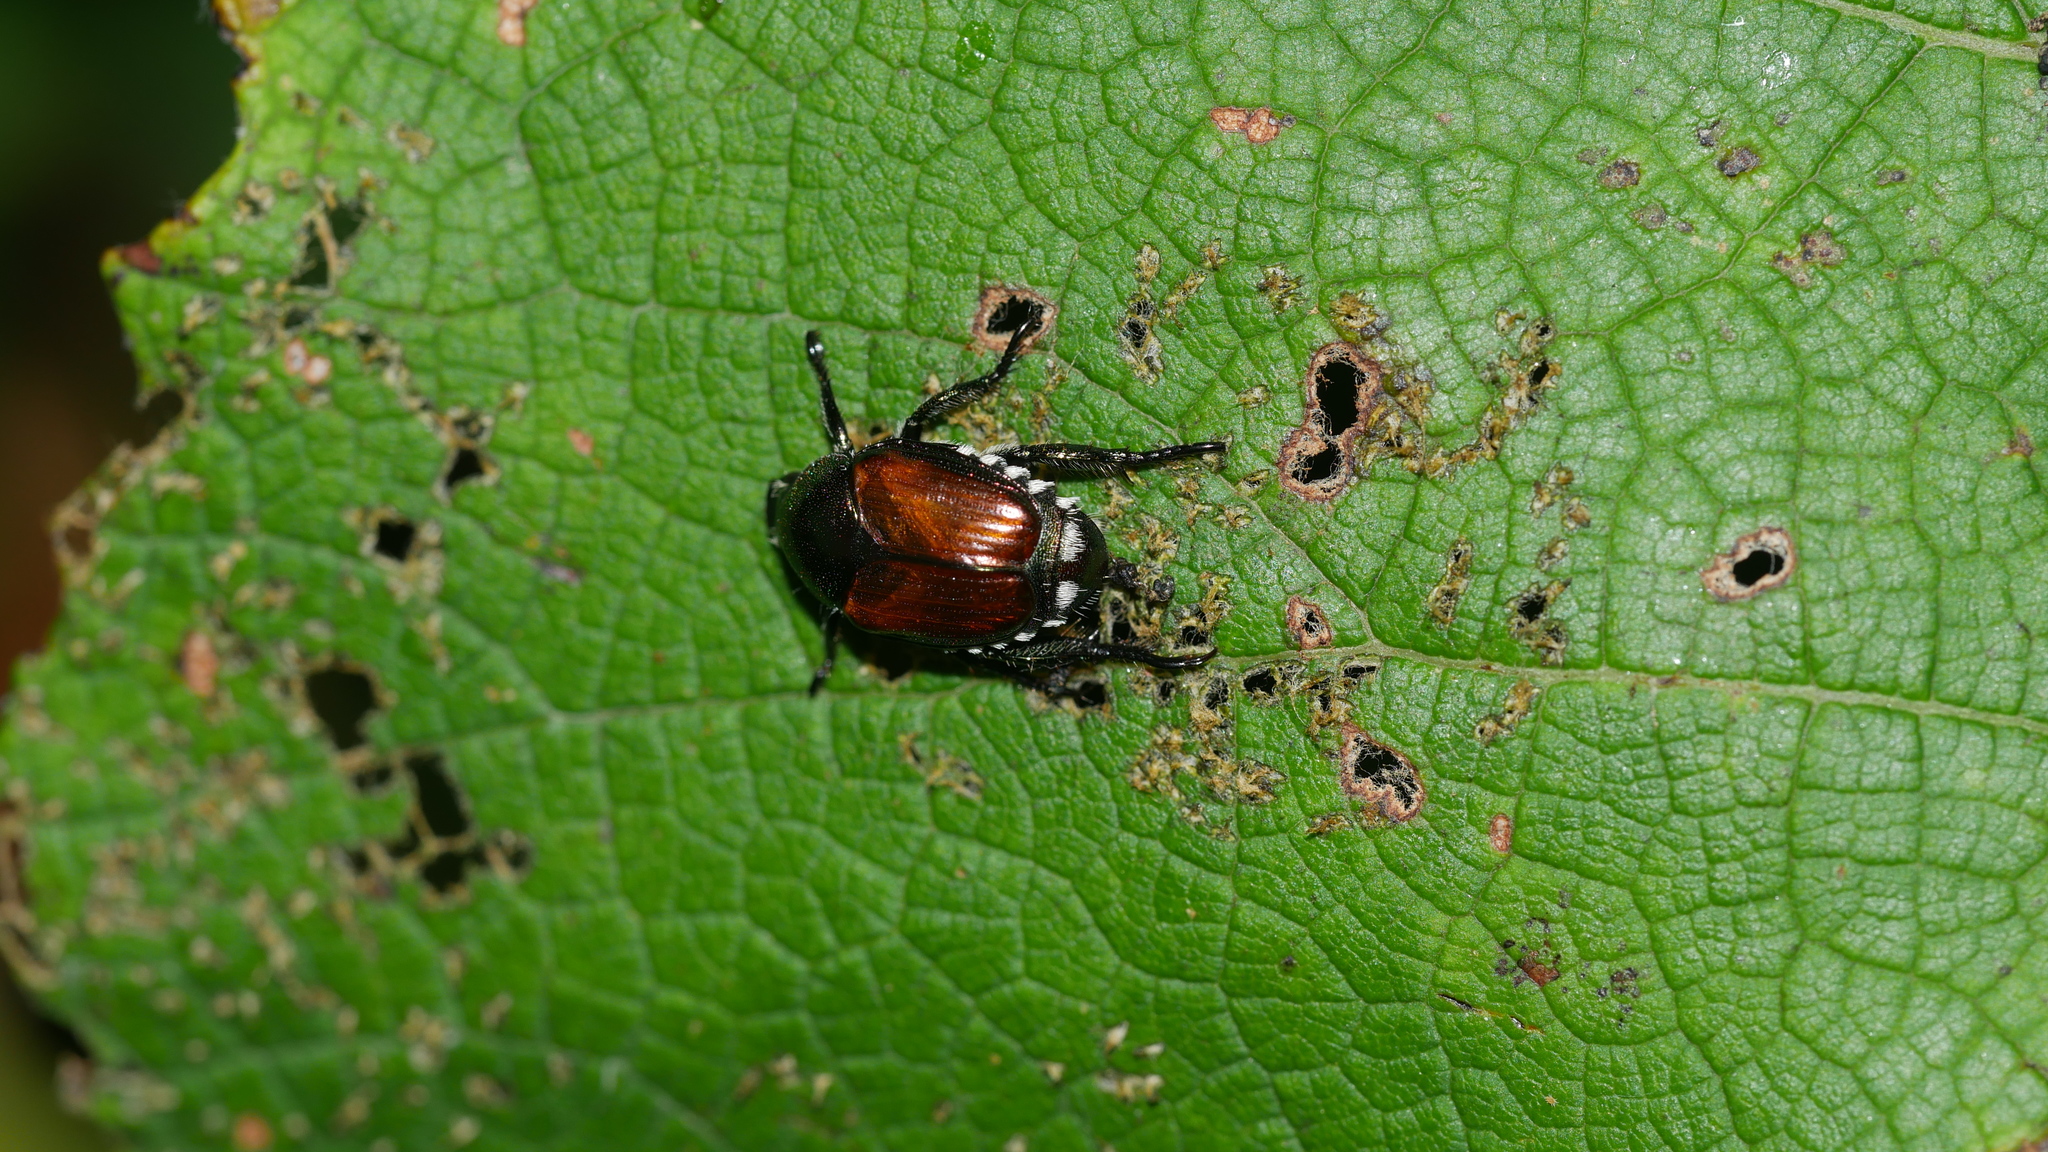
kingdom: Animalia
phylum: Arthropoda
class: Insecta
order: Coleoptera
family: Scarabaeidae
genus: Popillia
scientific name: Popillia japonica
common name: Japanese beetle
